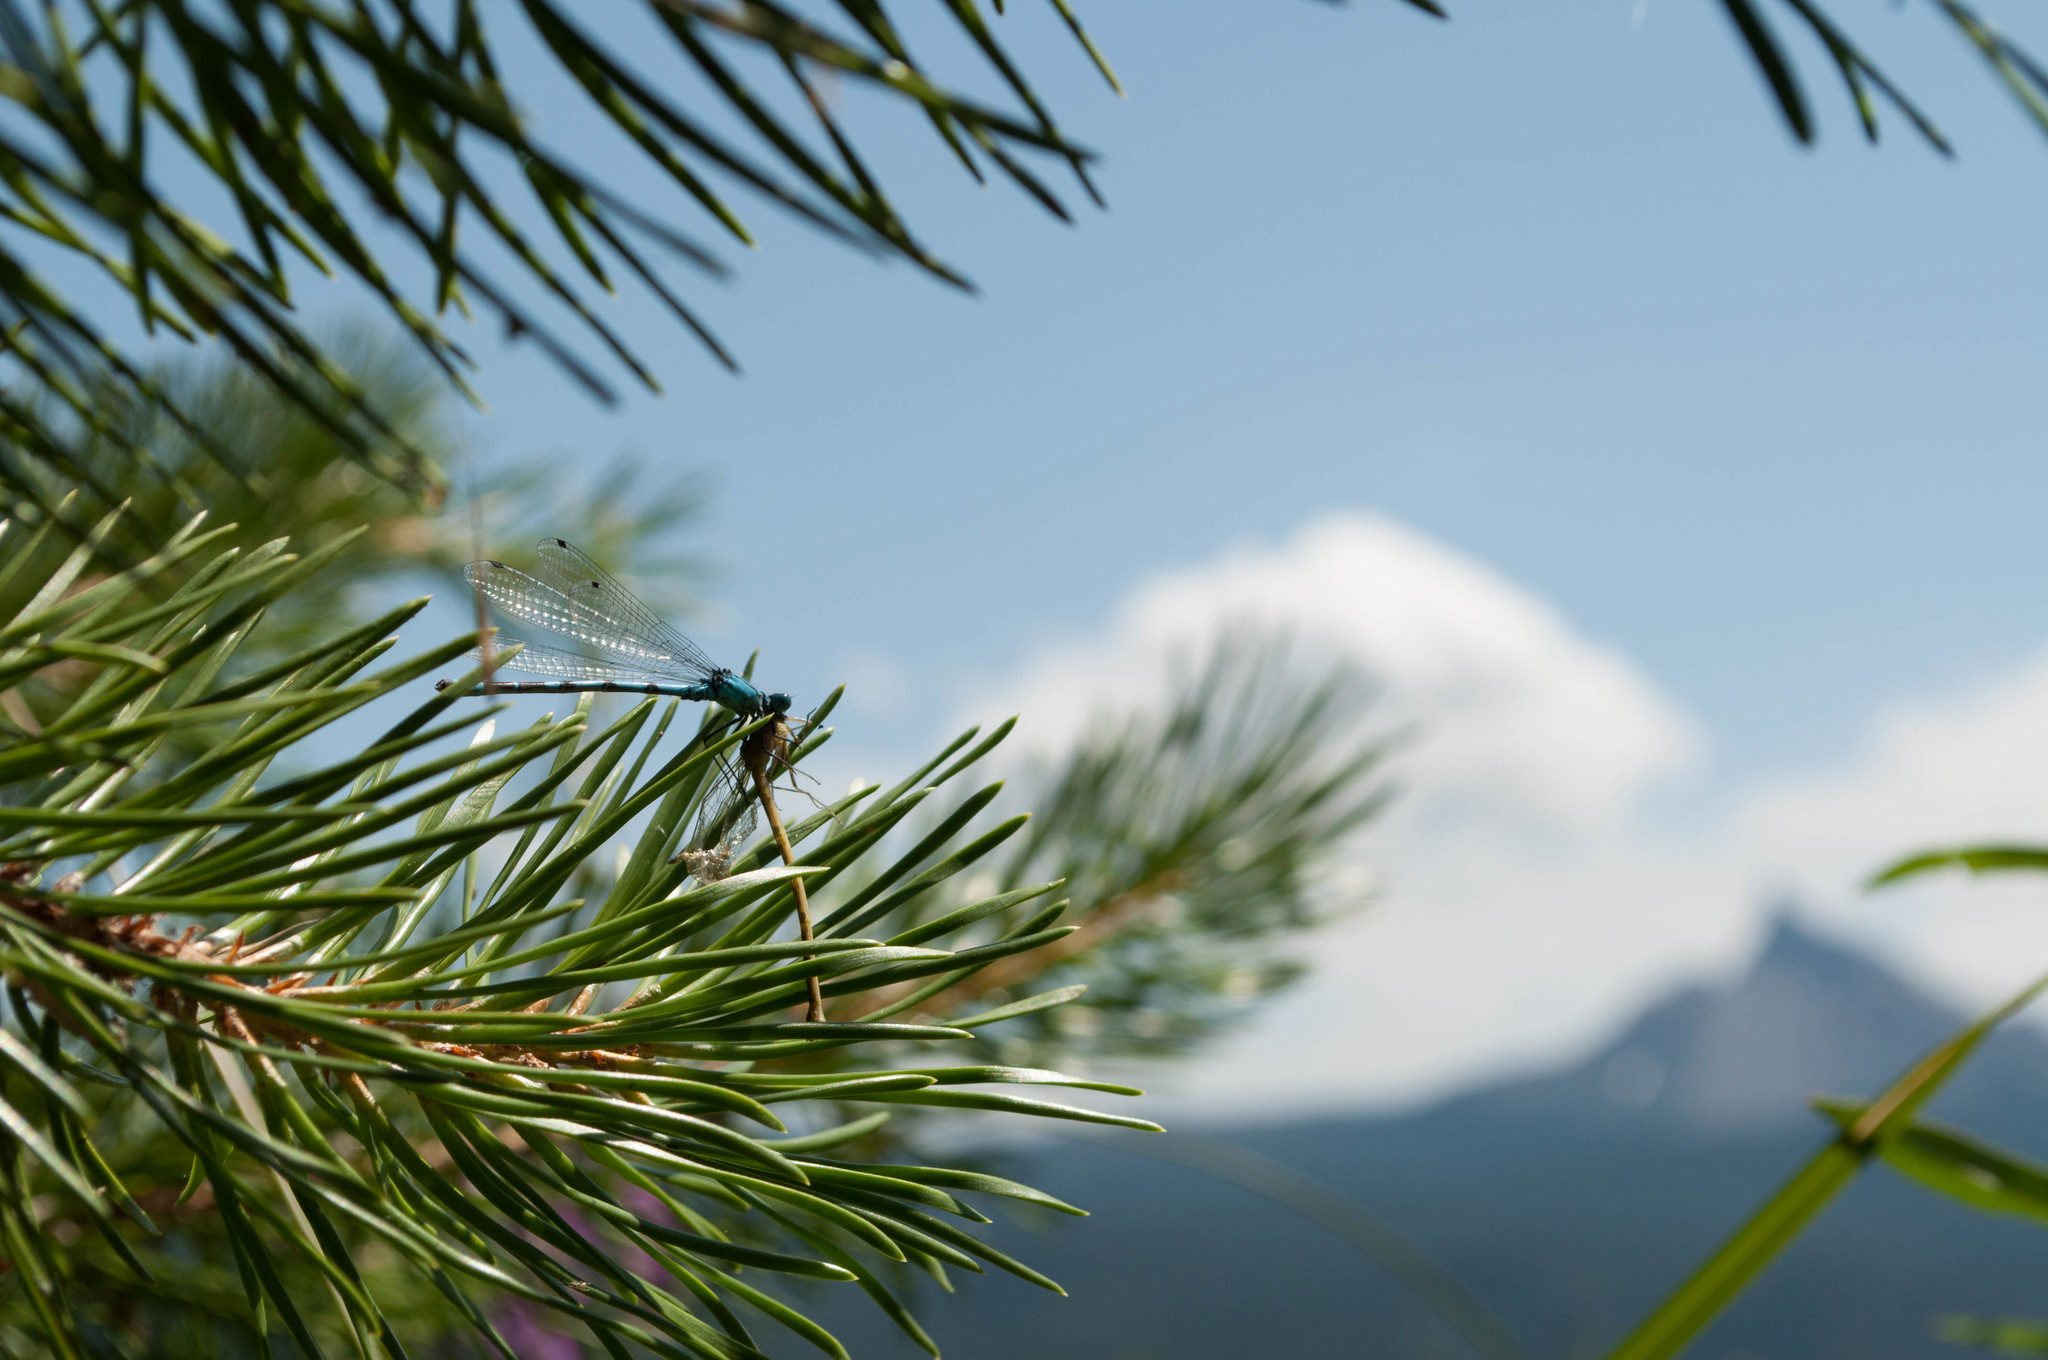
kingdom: Plantae
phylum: Tracheophyta
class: Pinopsida
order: Pinales
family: Pinaceae
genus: Pinus
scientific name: Pinus contorta
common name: Lodgepole pine
